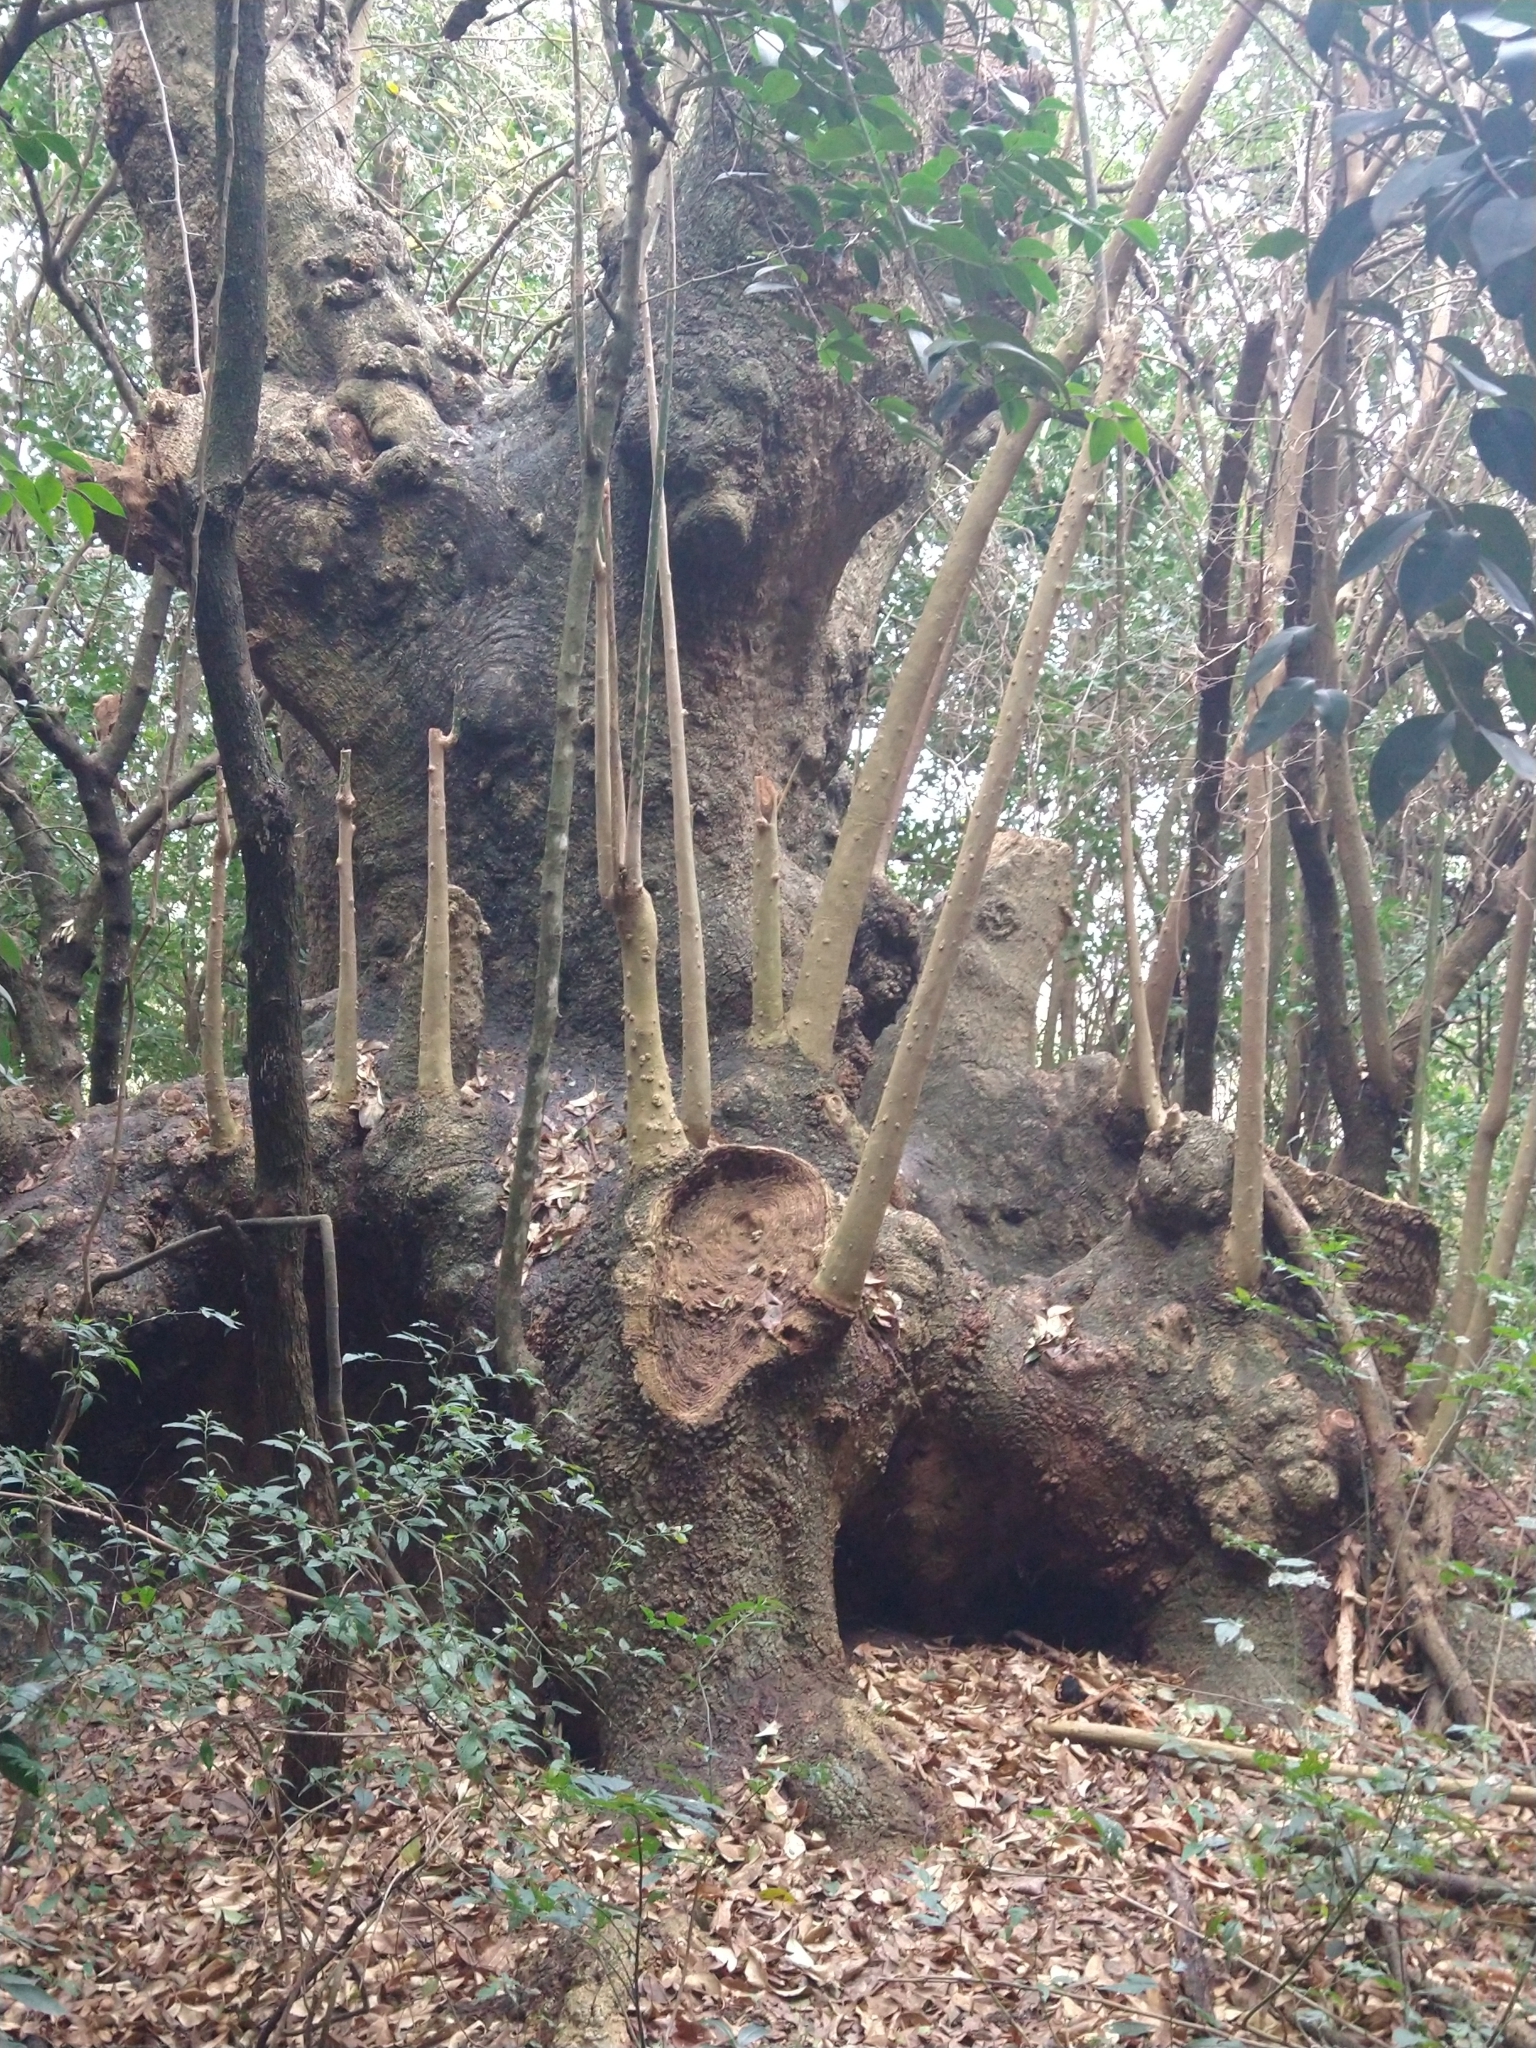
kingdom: Plantae
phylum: Tracheophyta
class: Magnoliopsida
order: Caryophyllales
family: Phytolaccaceae
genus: Phytolacca
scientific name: Phytolacca dioica
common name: Pokeweed
